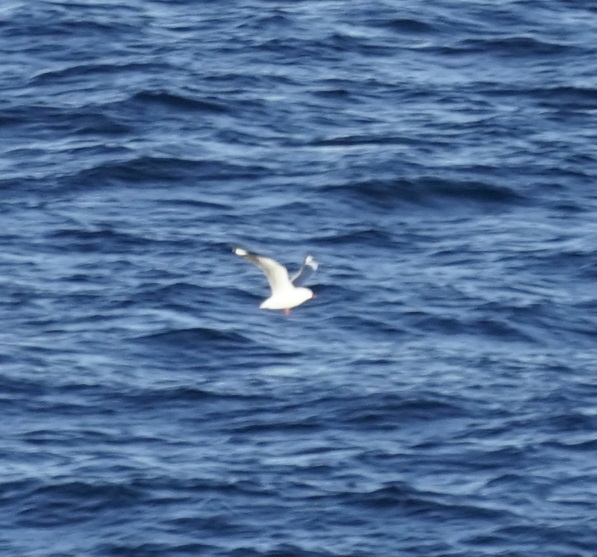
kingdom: Animalia
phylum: Chordata
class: Aves
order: Charadriiformes
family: Laridae
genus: Chroicocephalus
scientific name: Chroicocephalus novaehollandiae
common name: Silver gull
